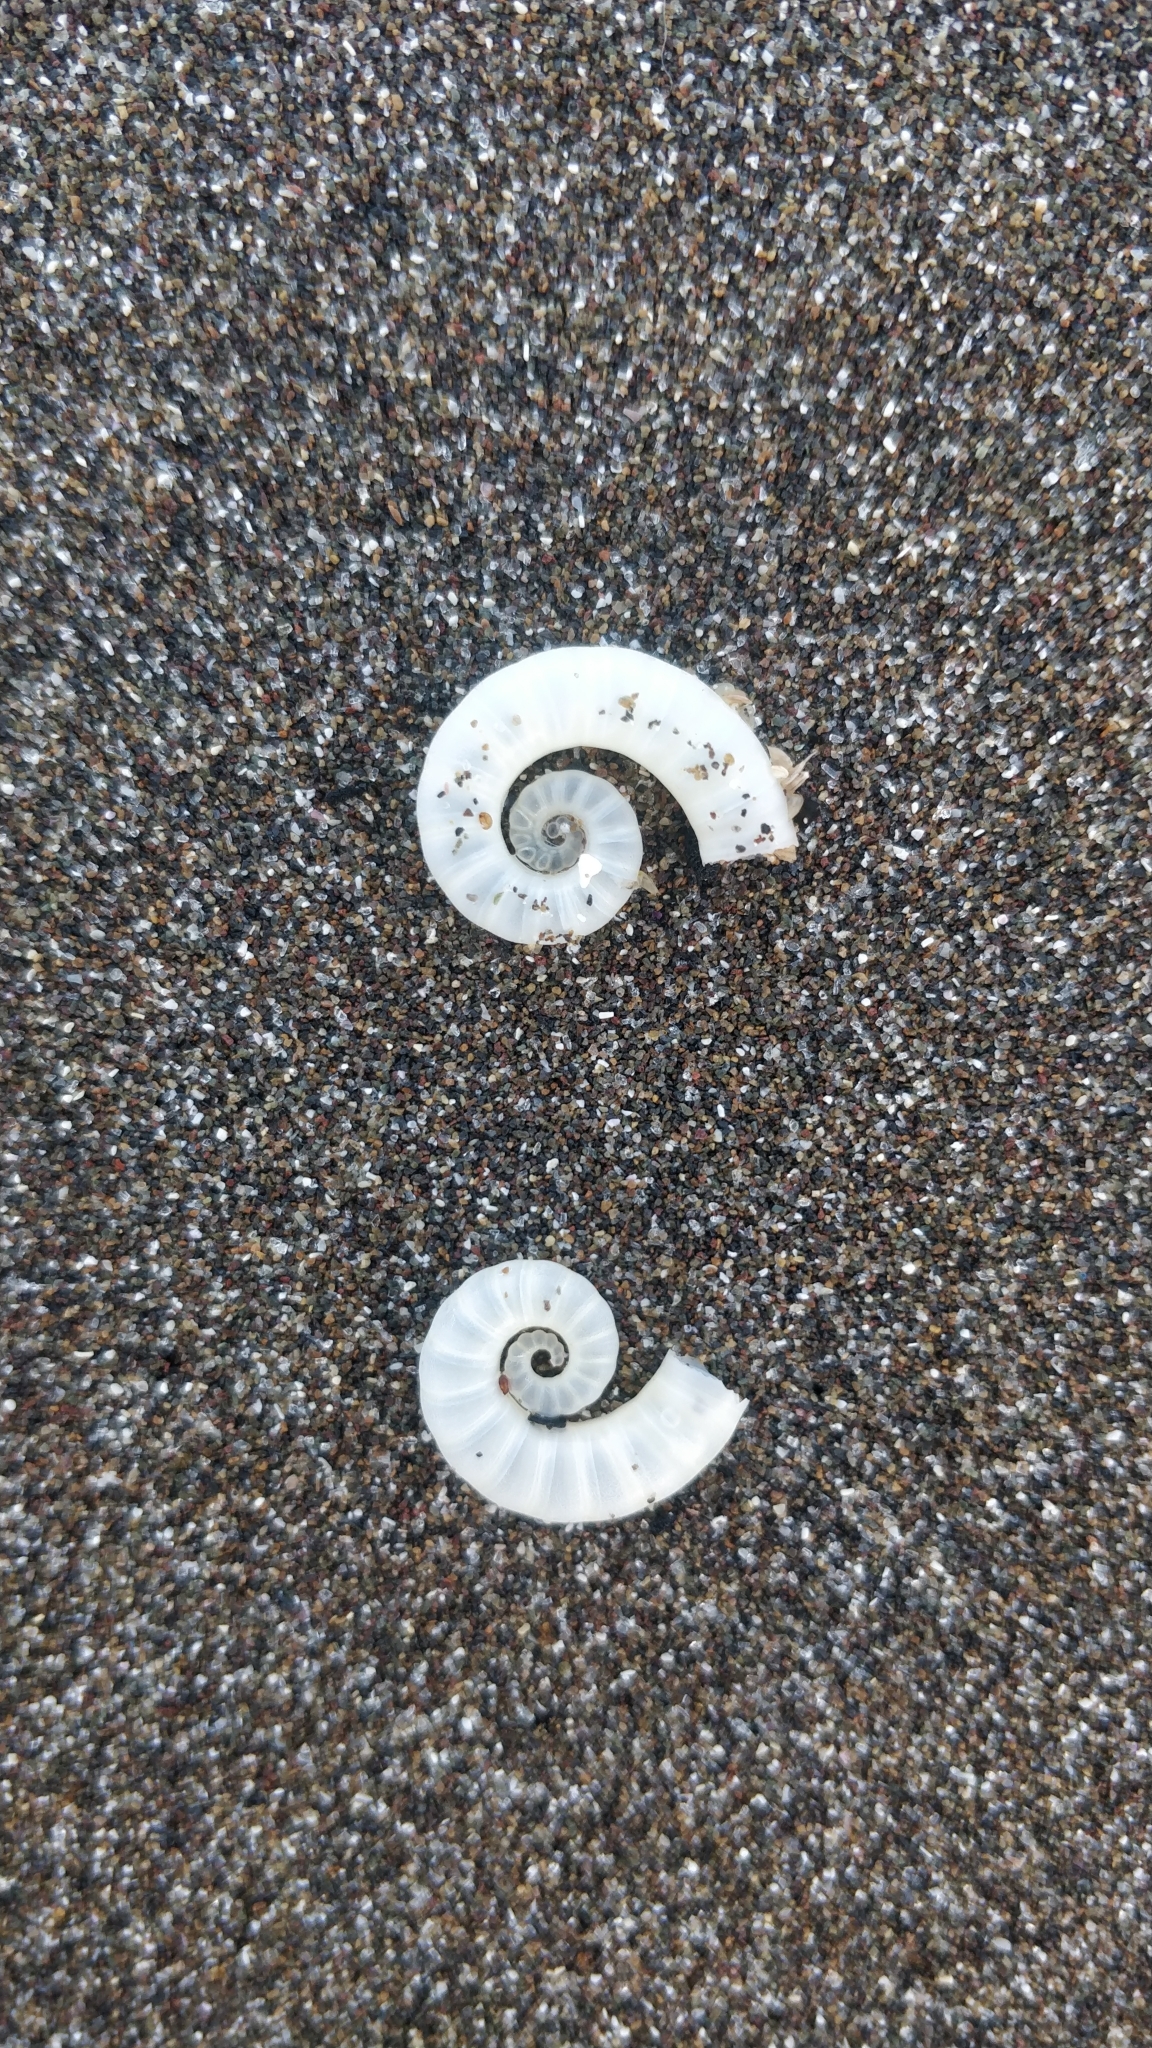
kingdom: Animalia
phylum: Mollusca
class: Cephalopoda
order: Spirulida
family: Spirulidae
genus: Spirula
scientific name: Spirula spirula
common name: Ram's horn squid
